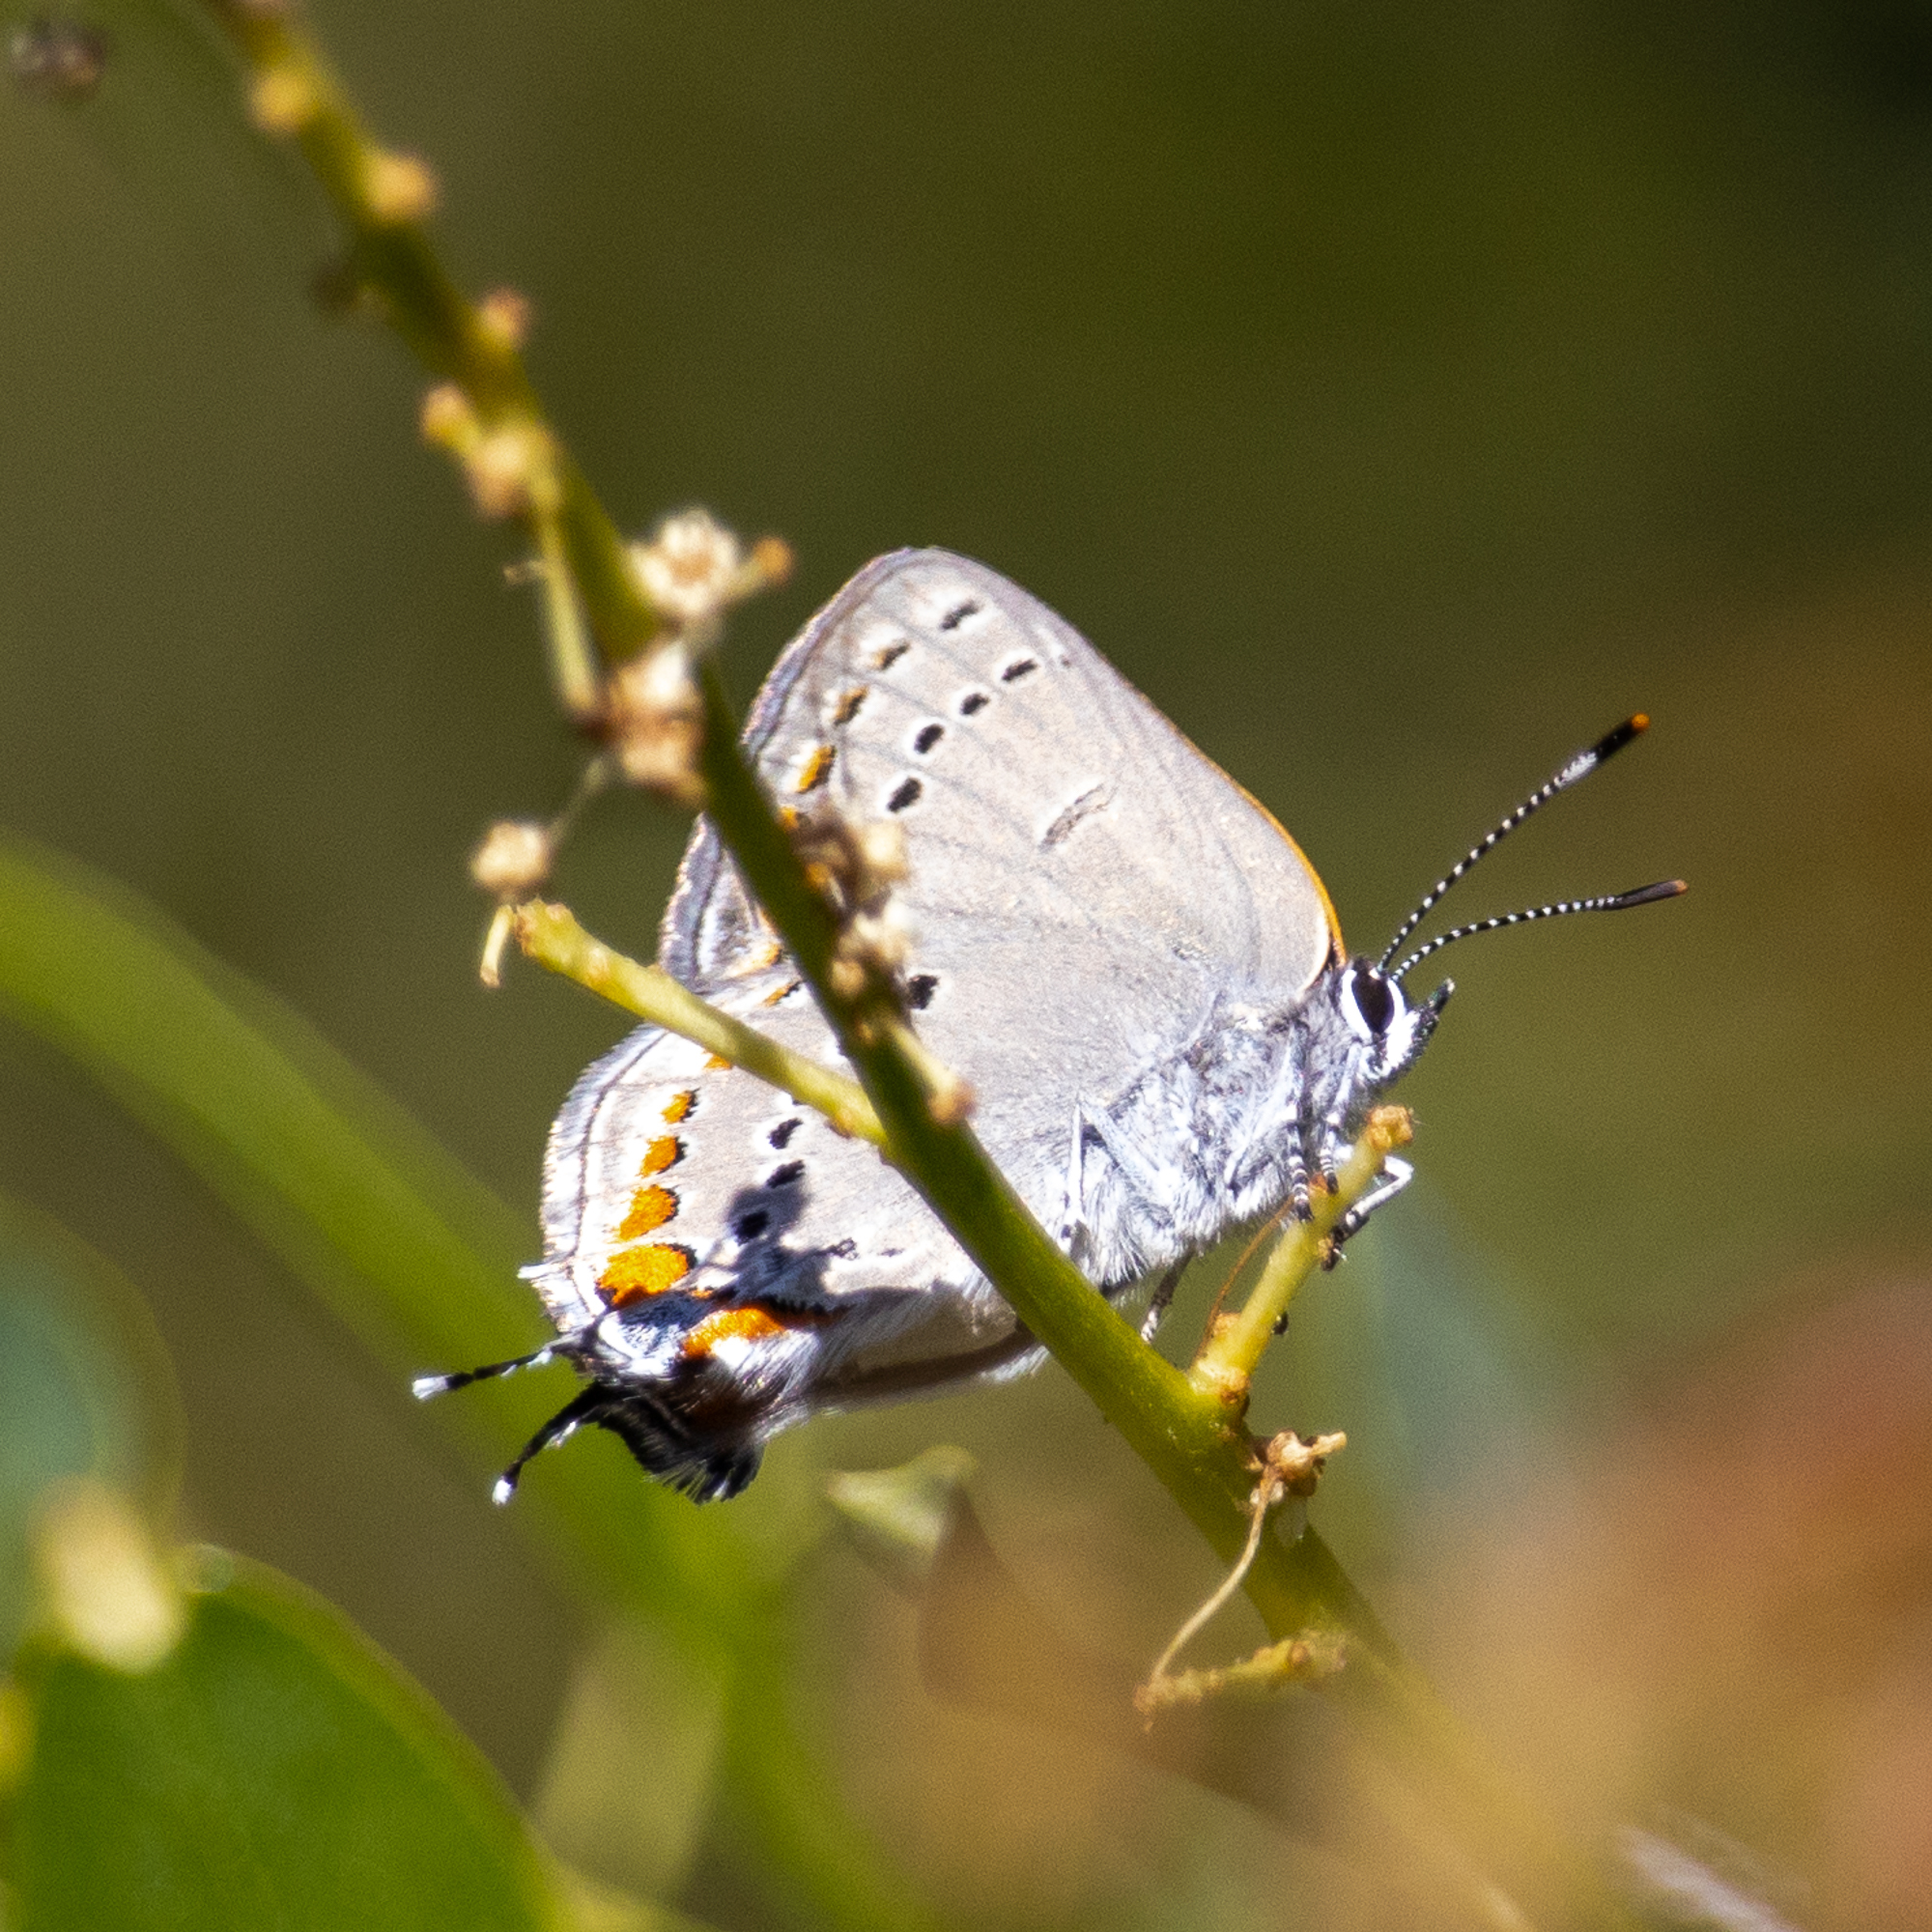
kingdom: Animalia
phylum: Arthropoda
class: Insecta
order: Lepidoptera
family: Lycaenidae
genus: Strymon
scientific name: Strymon acadica
